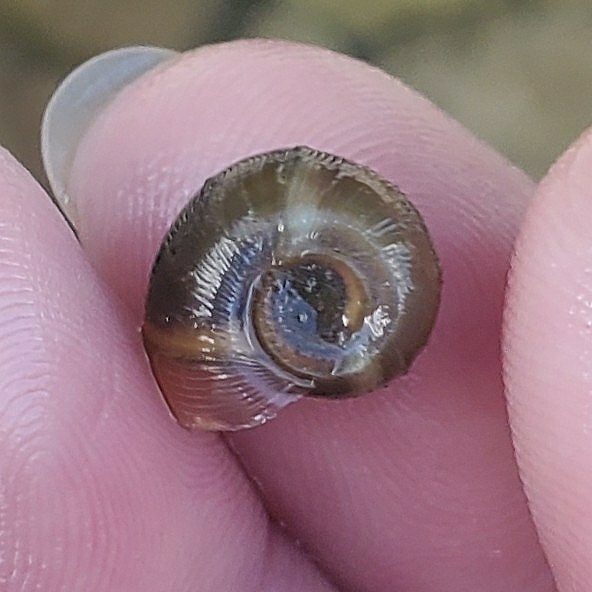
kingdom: Animalia
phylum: Mollusca
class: Gastropoda
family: Planorbidae
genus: Planorbella
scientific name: Planorbella trivolvis
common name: Marsh rams-horn
